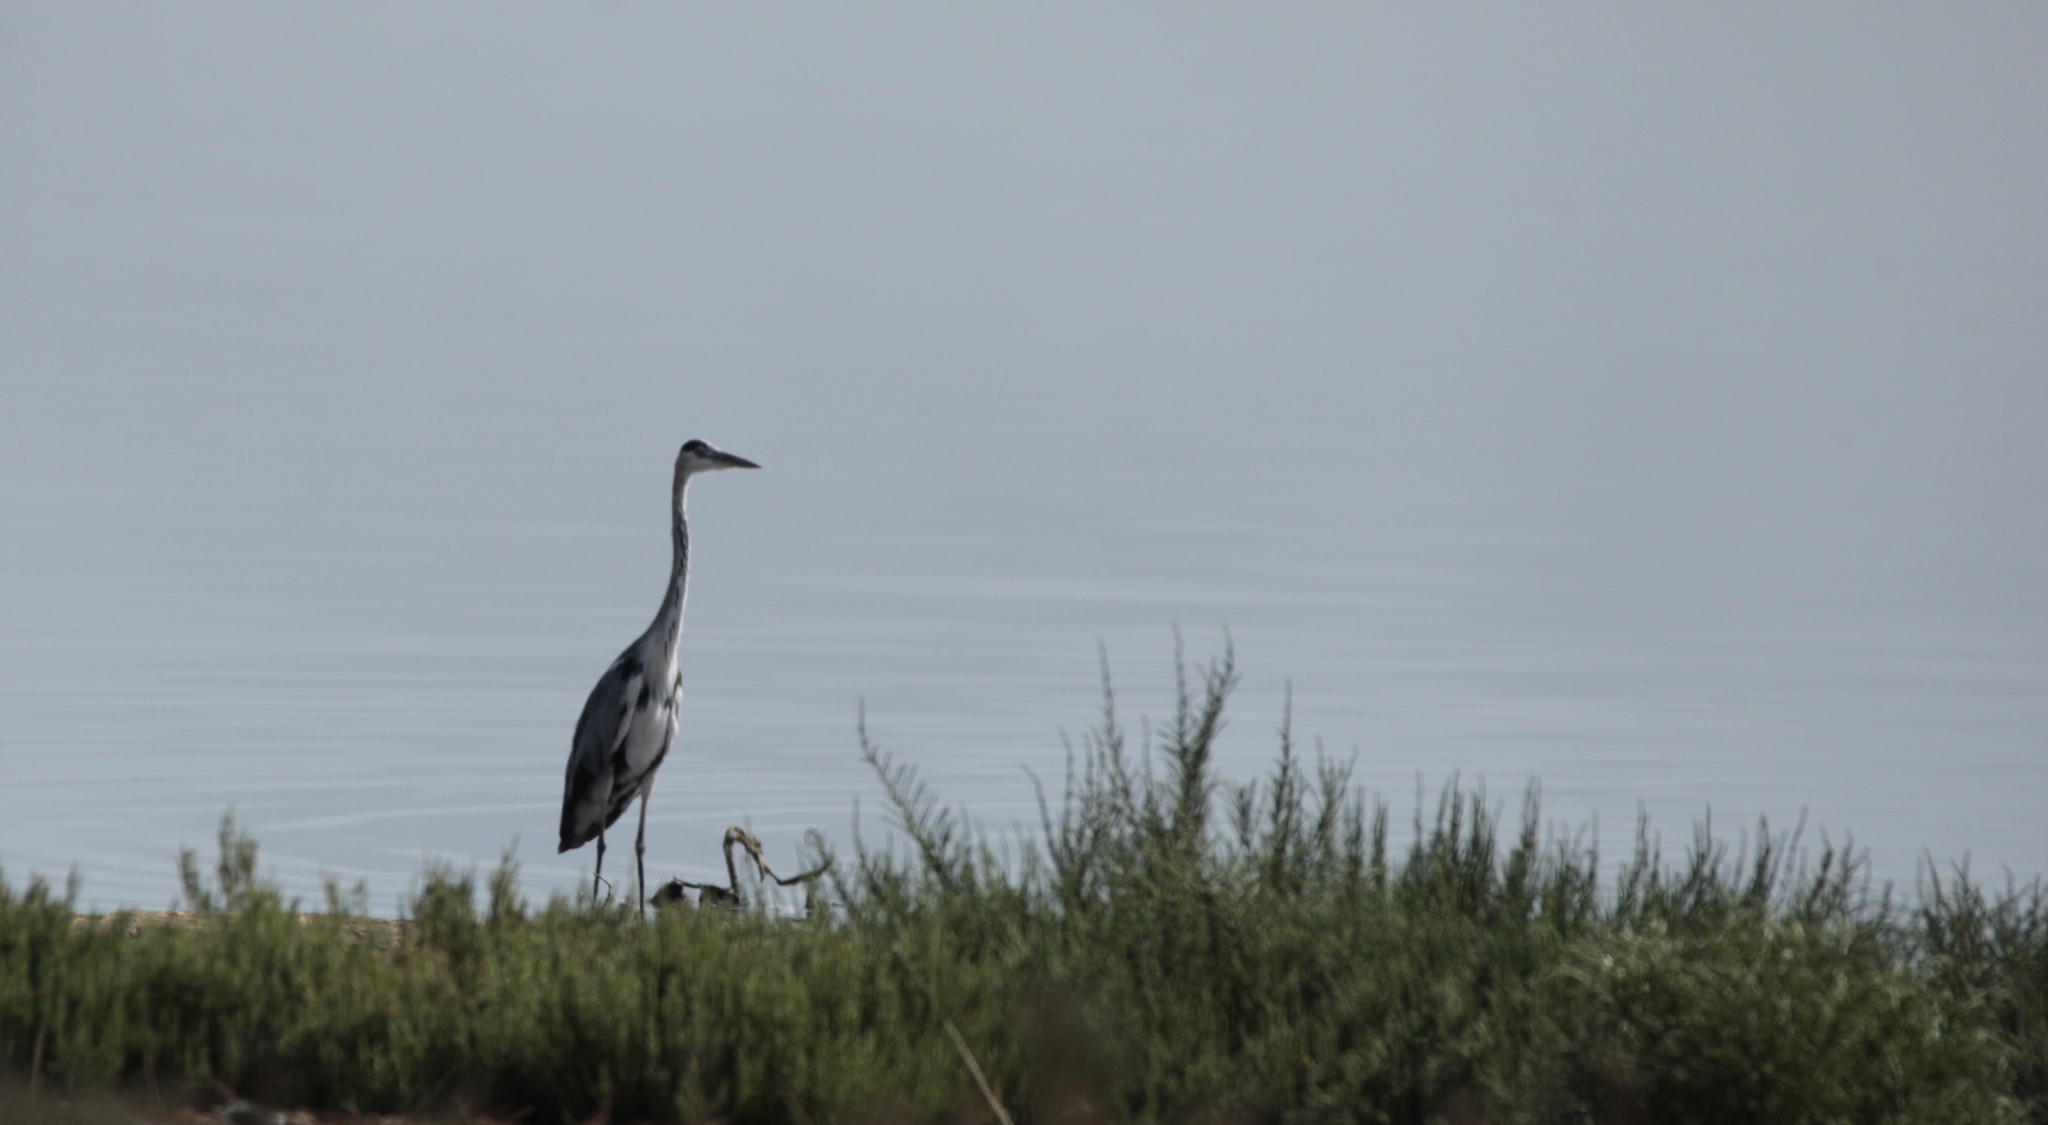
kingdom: Animalia
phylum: Chordata
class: Aves
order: Pelecaniformes
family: Ardeidae
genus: Ardea
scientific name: Ardea cinerea
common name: Grey heron
